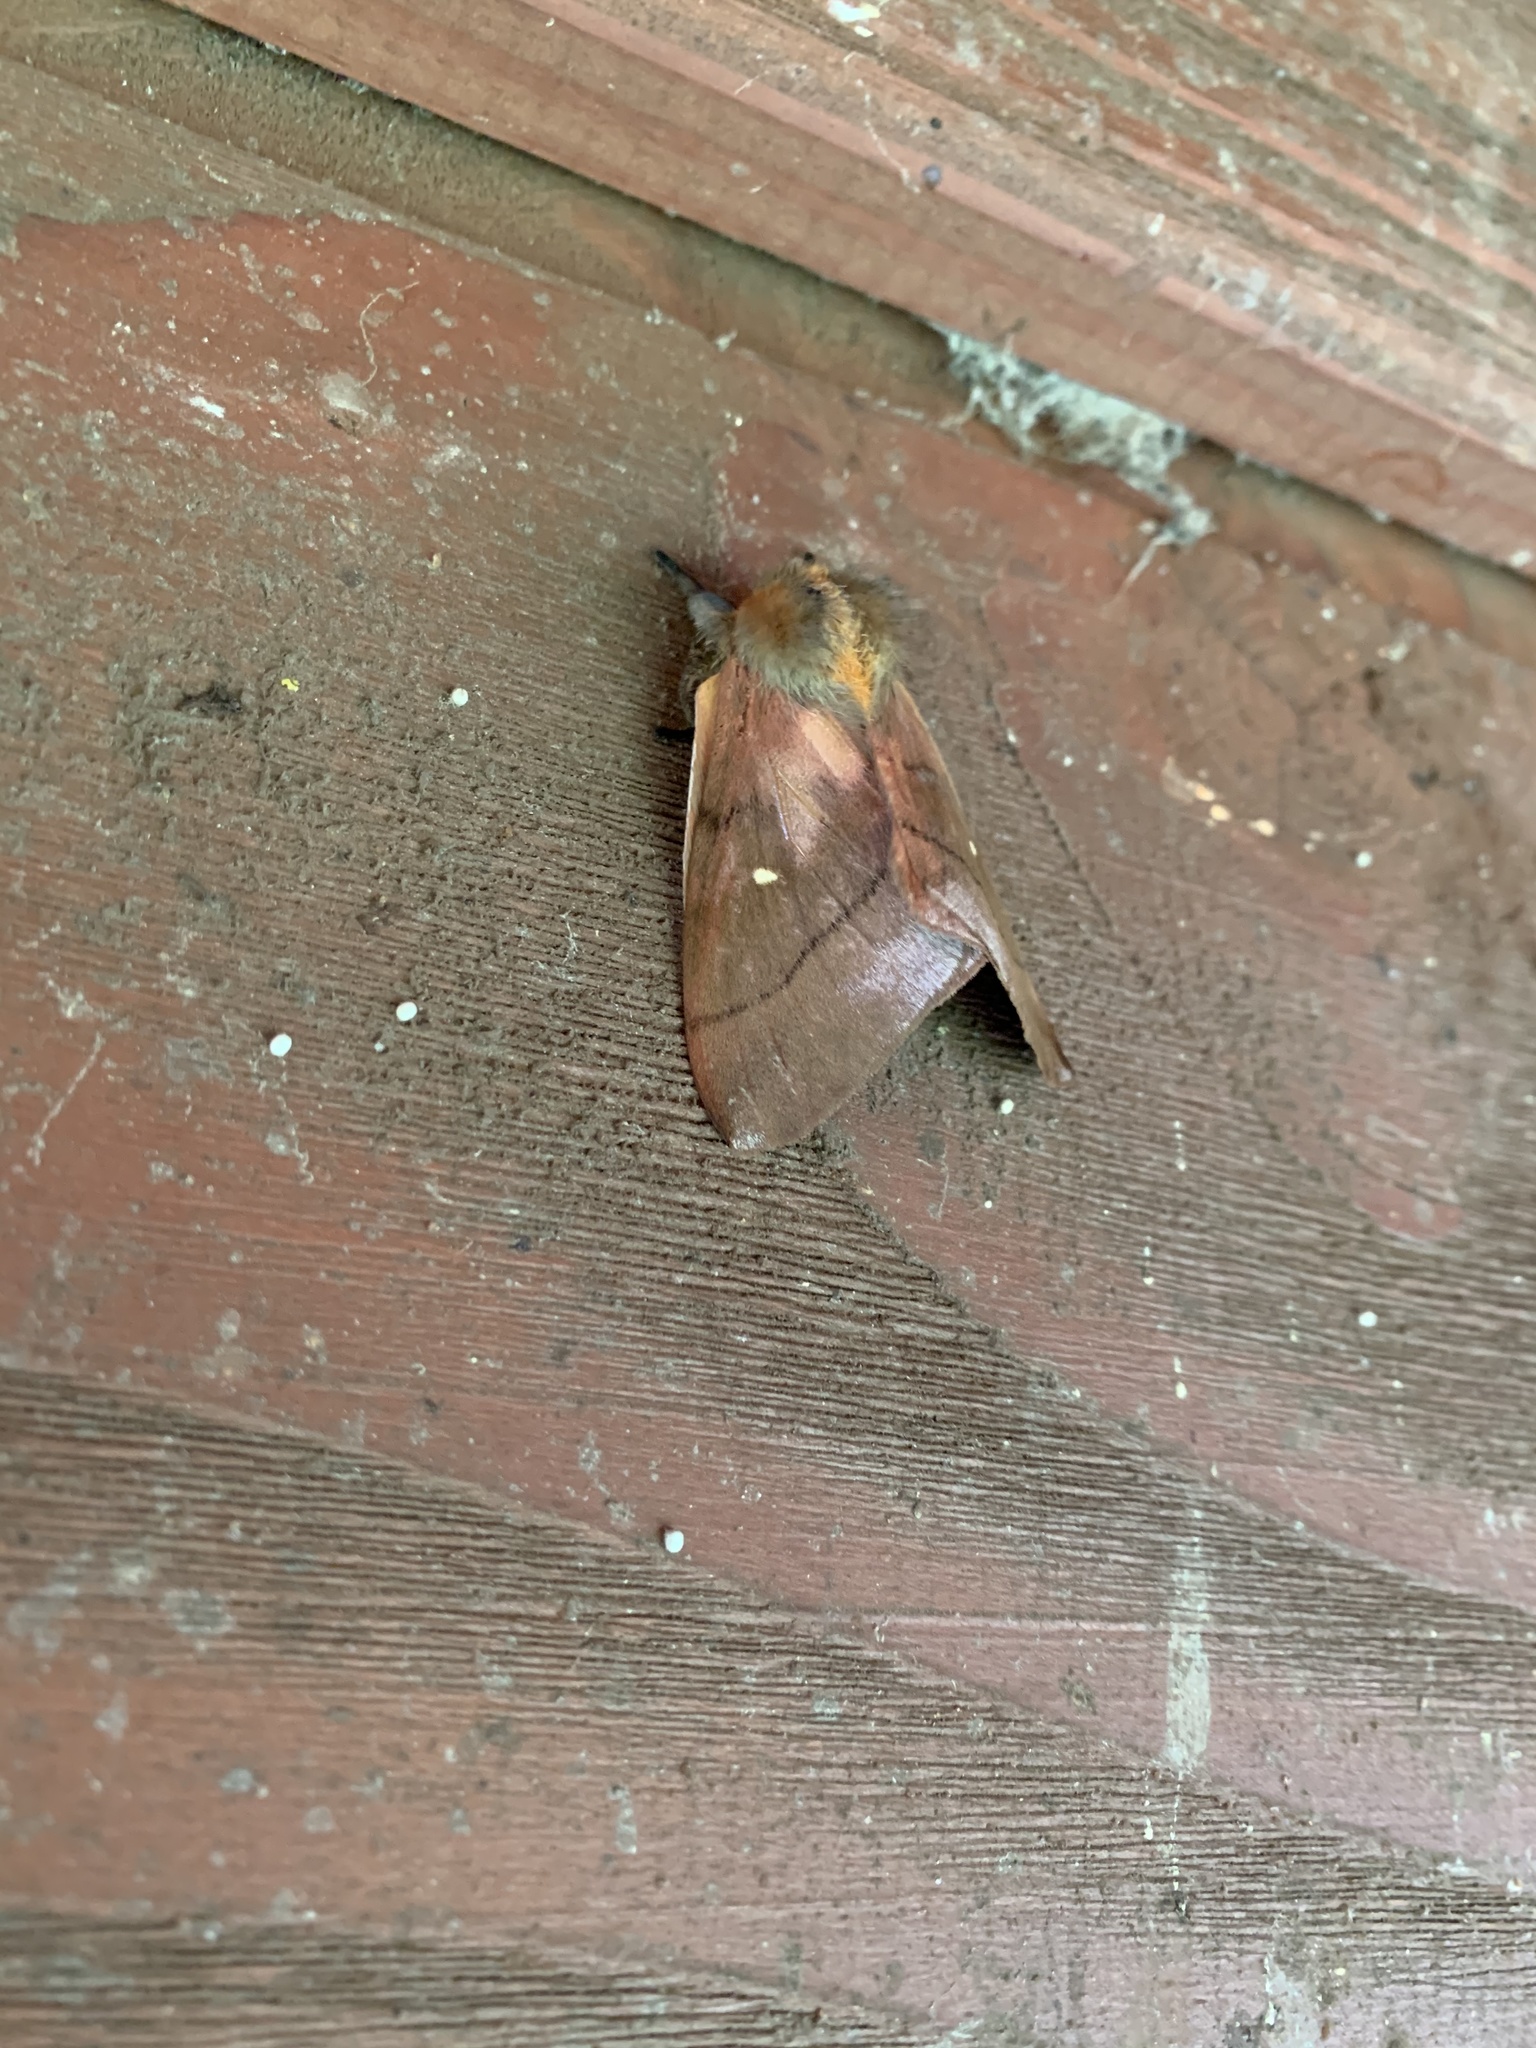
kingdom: Animalia
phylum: Arthropoda
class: Insecta
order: Lepidoptera
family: Saturniidae
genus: Ormiscodes
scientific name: Ormiscodes cinnamomea
